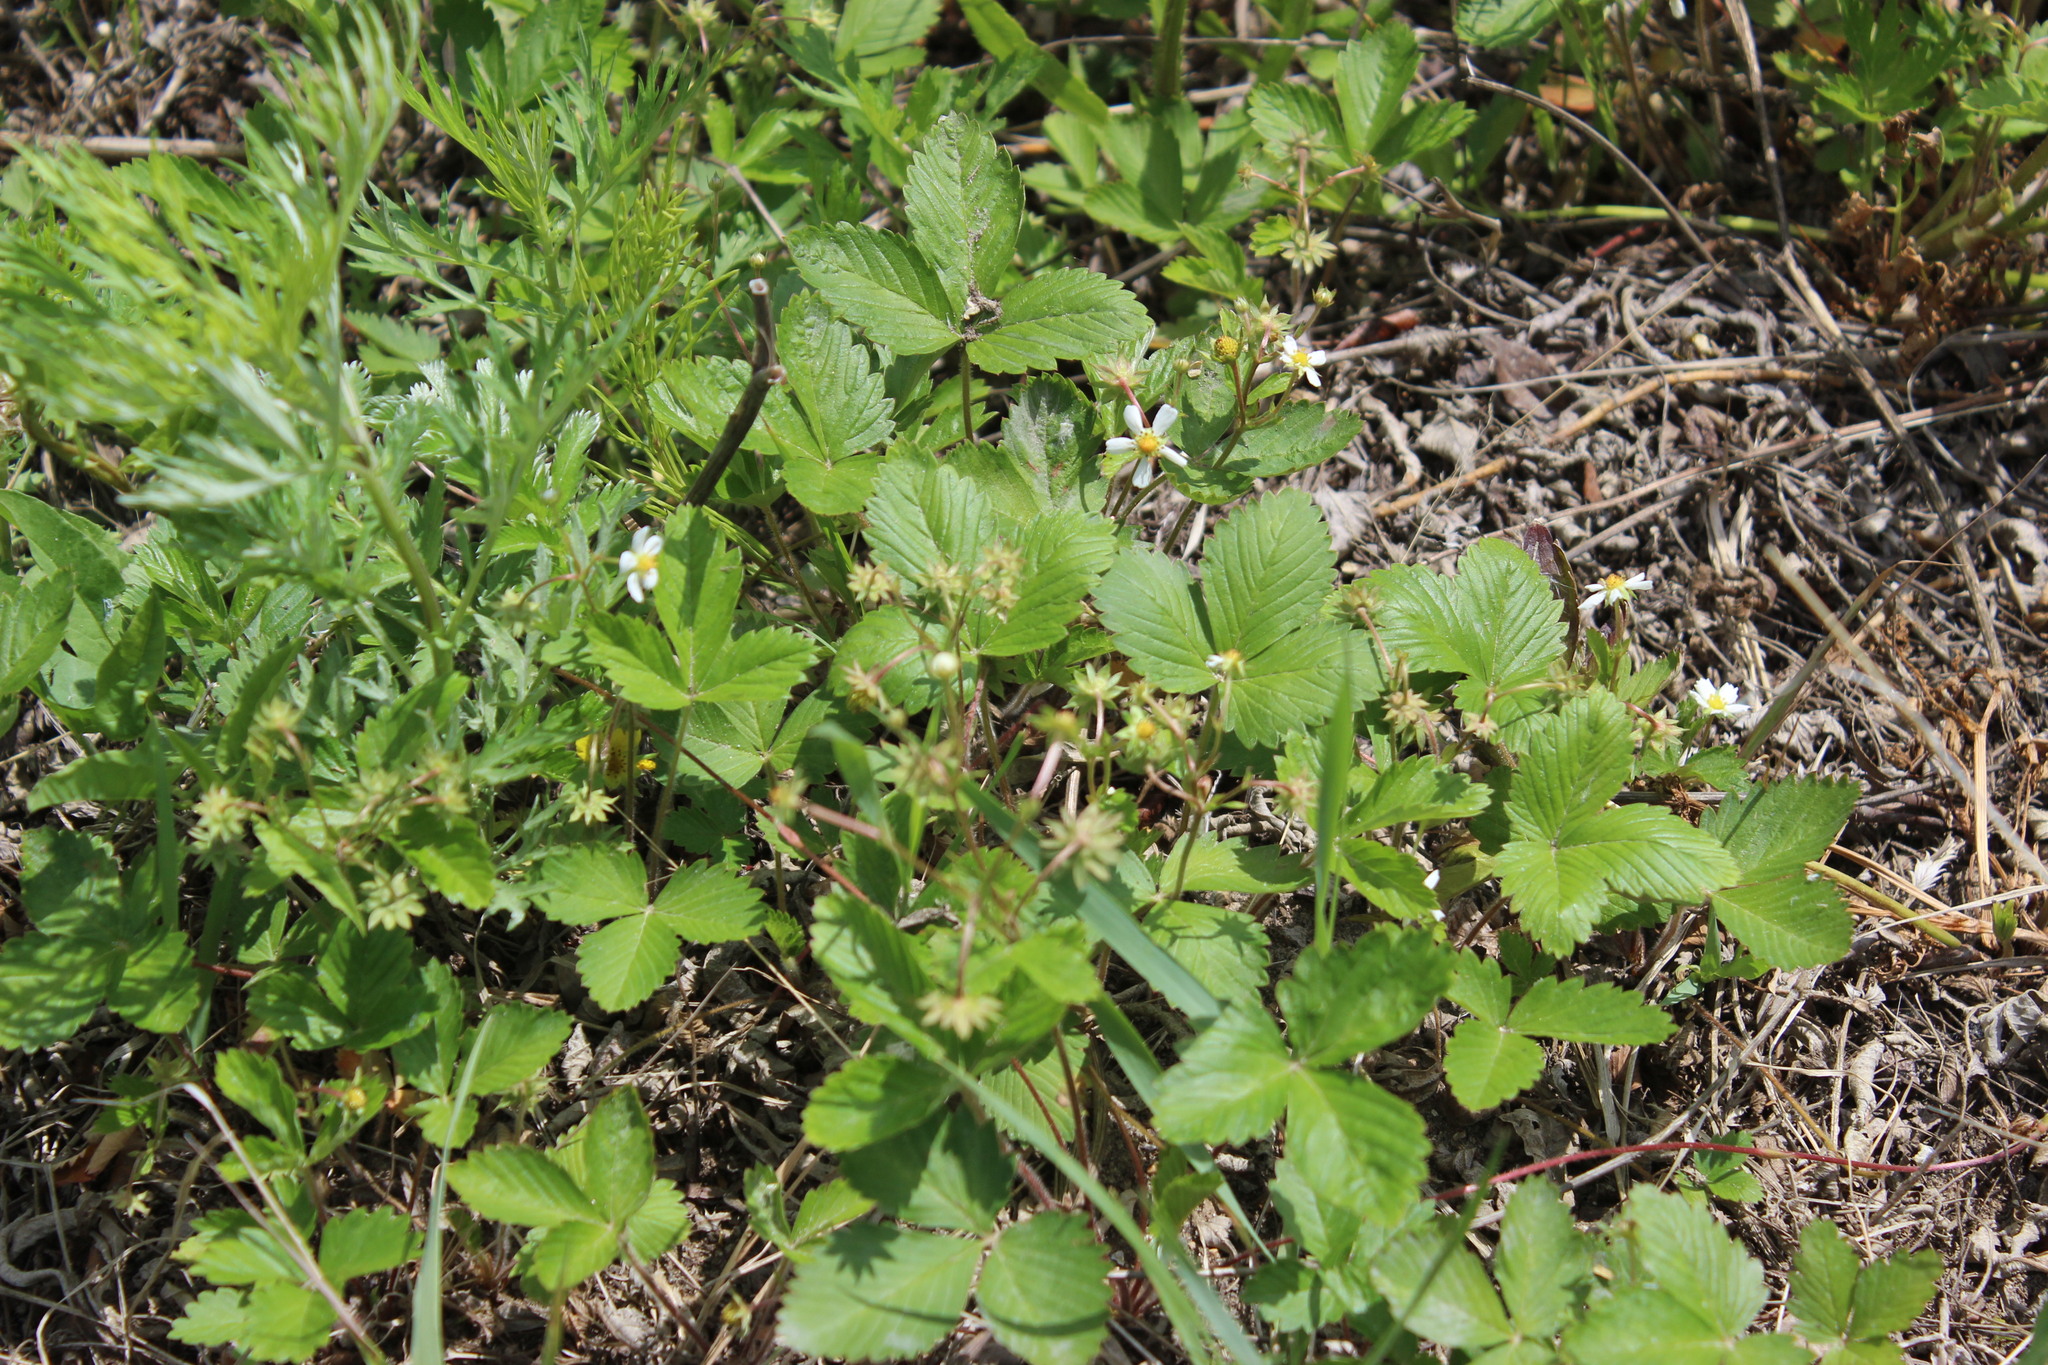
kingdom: Plantae
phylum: Tracheophyta
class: Magnoliopsida
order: Rosales
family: Rosaceae
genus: Fragaria
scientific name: Fragaria vesca
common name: Wild strawberry
